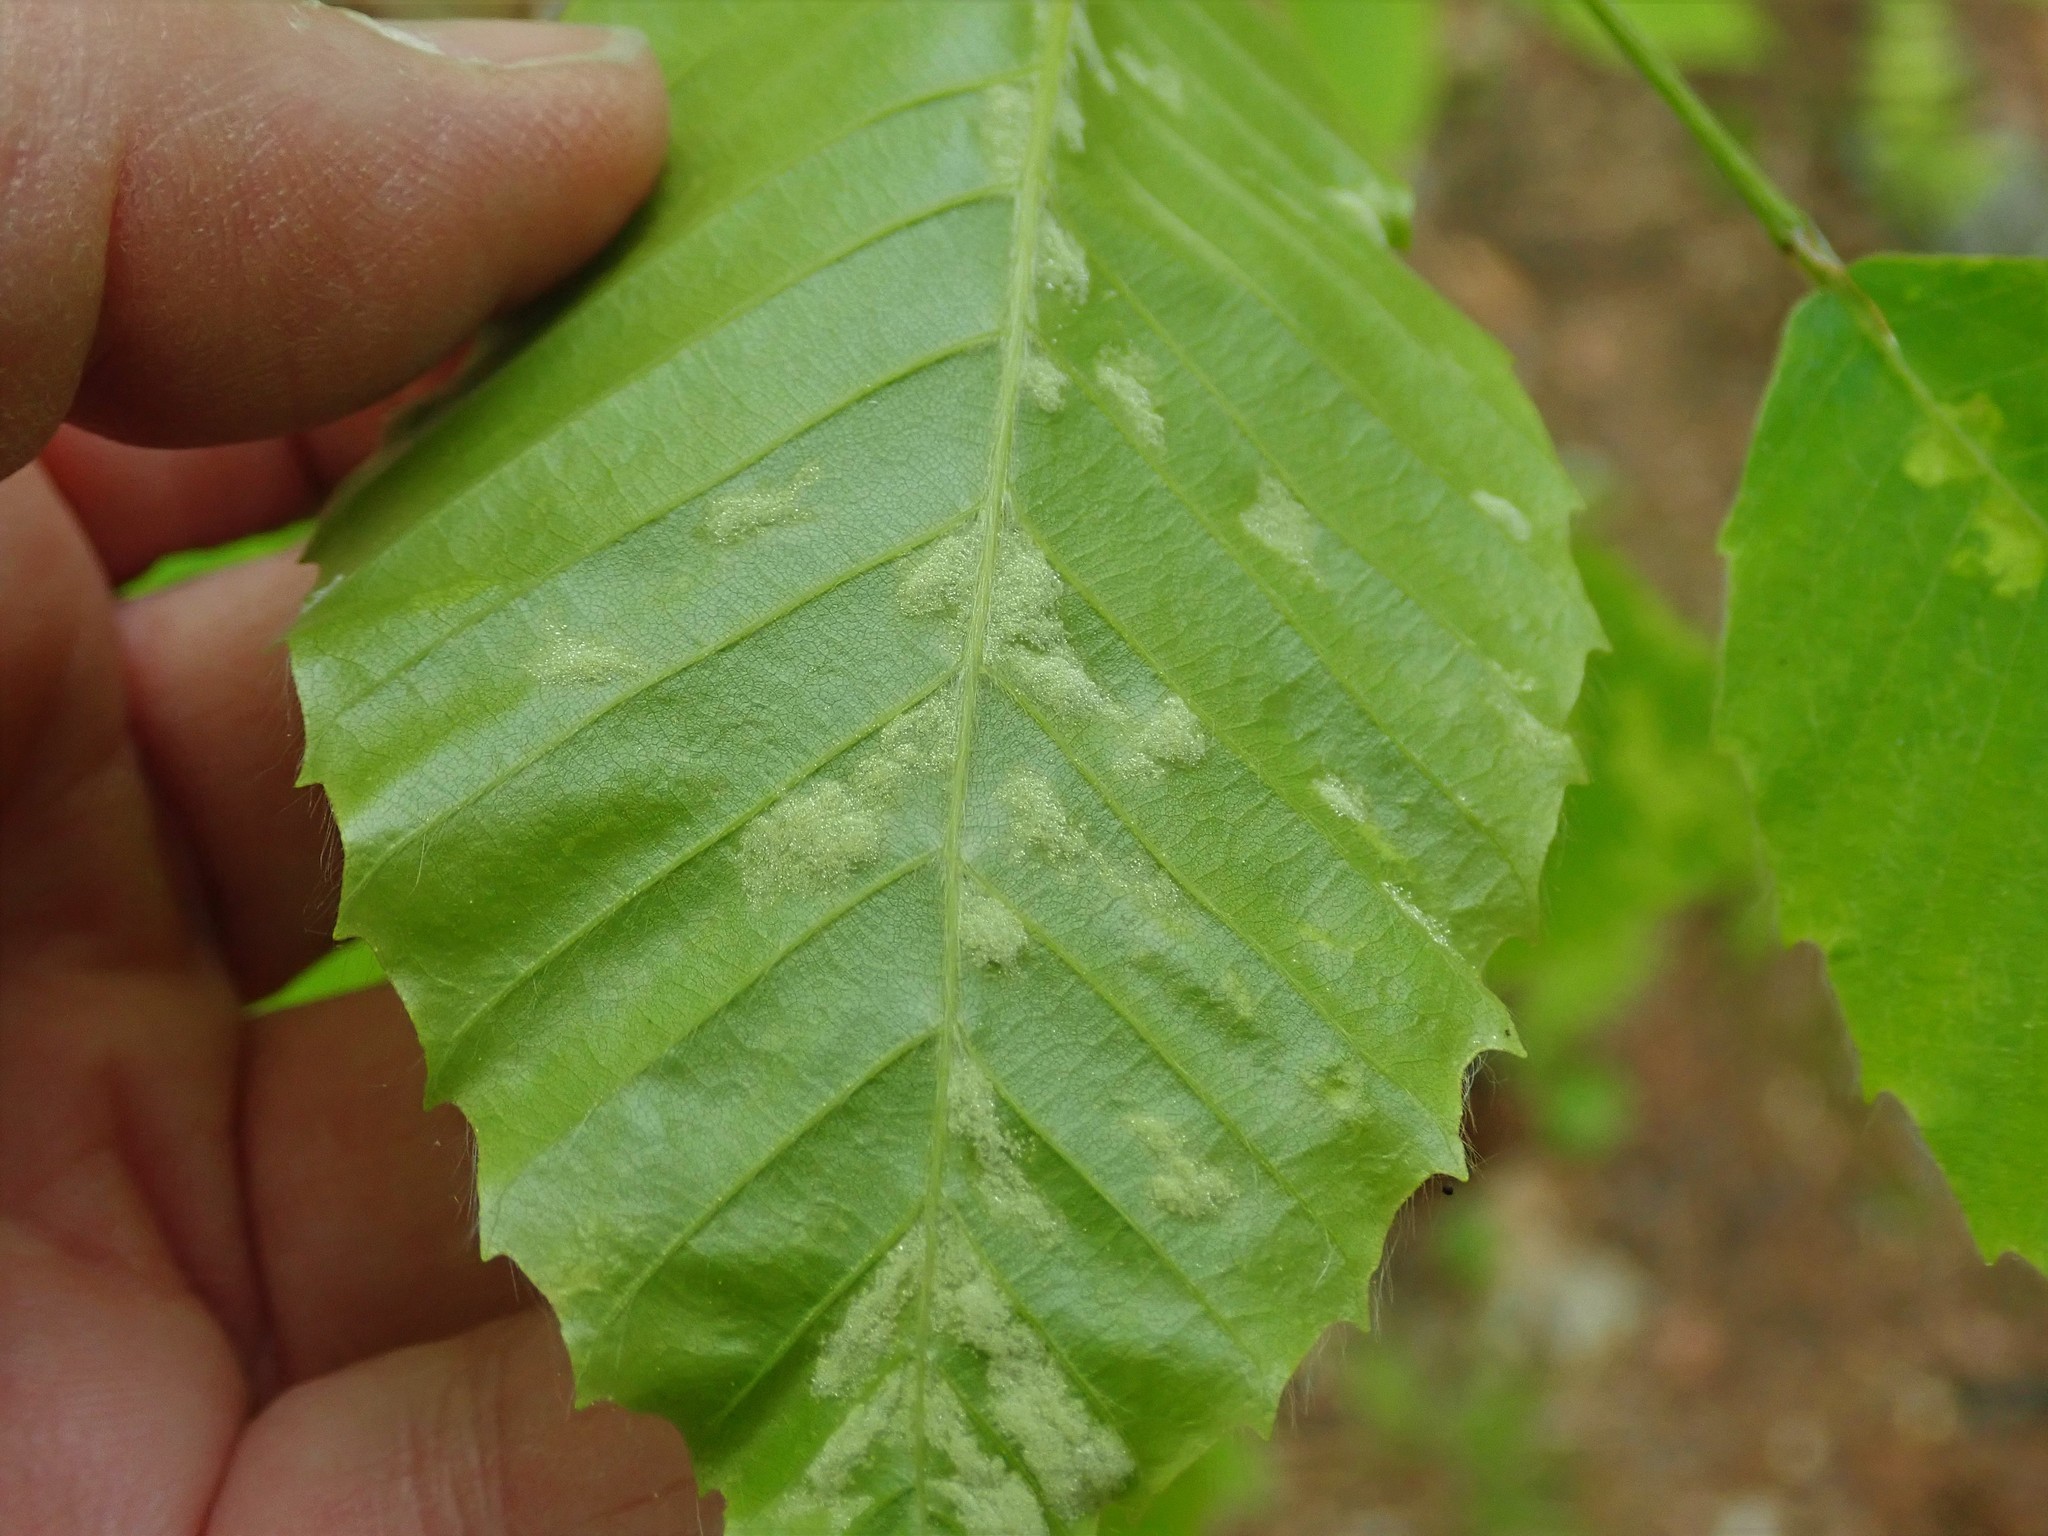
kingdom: Animalia
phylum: Arthropoda
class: Arachnida
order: Trombidiformes
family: Eriophyidae
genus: Acalitus
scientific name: Acalitus
